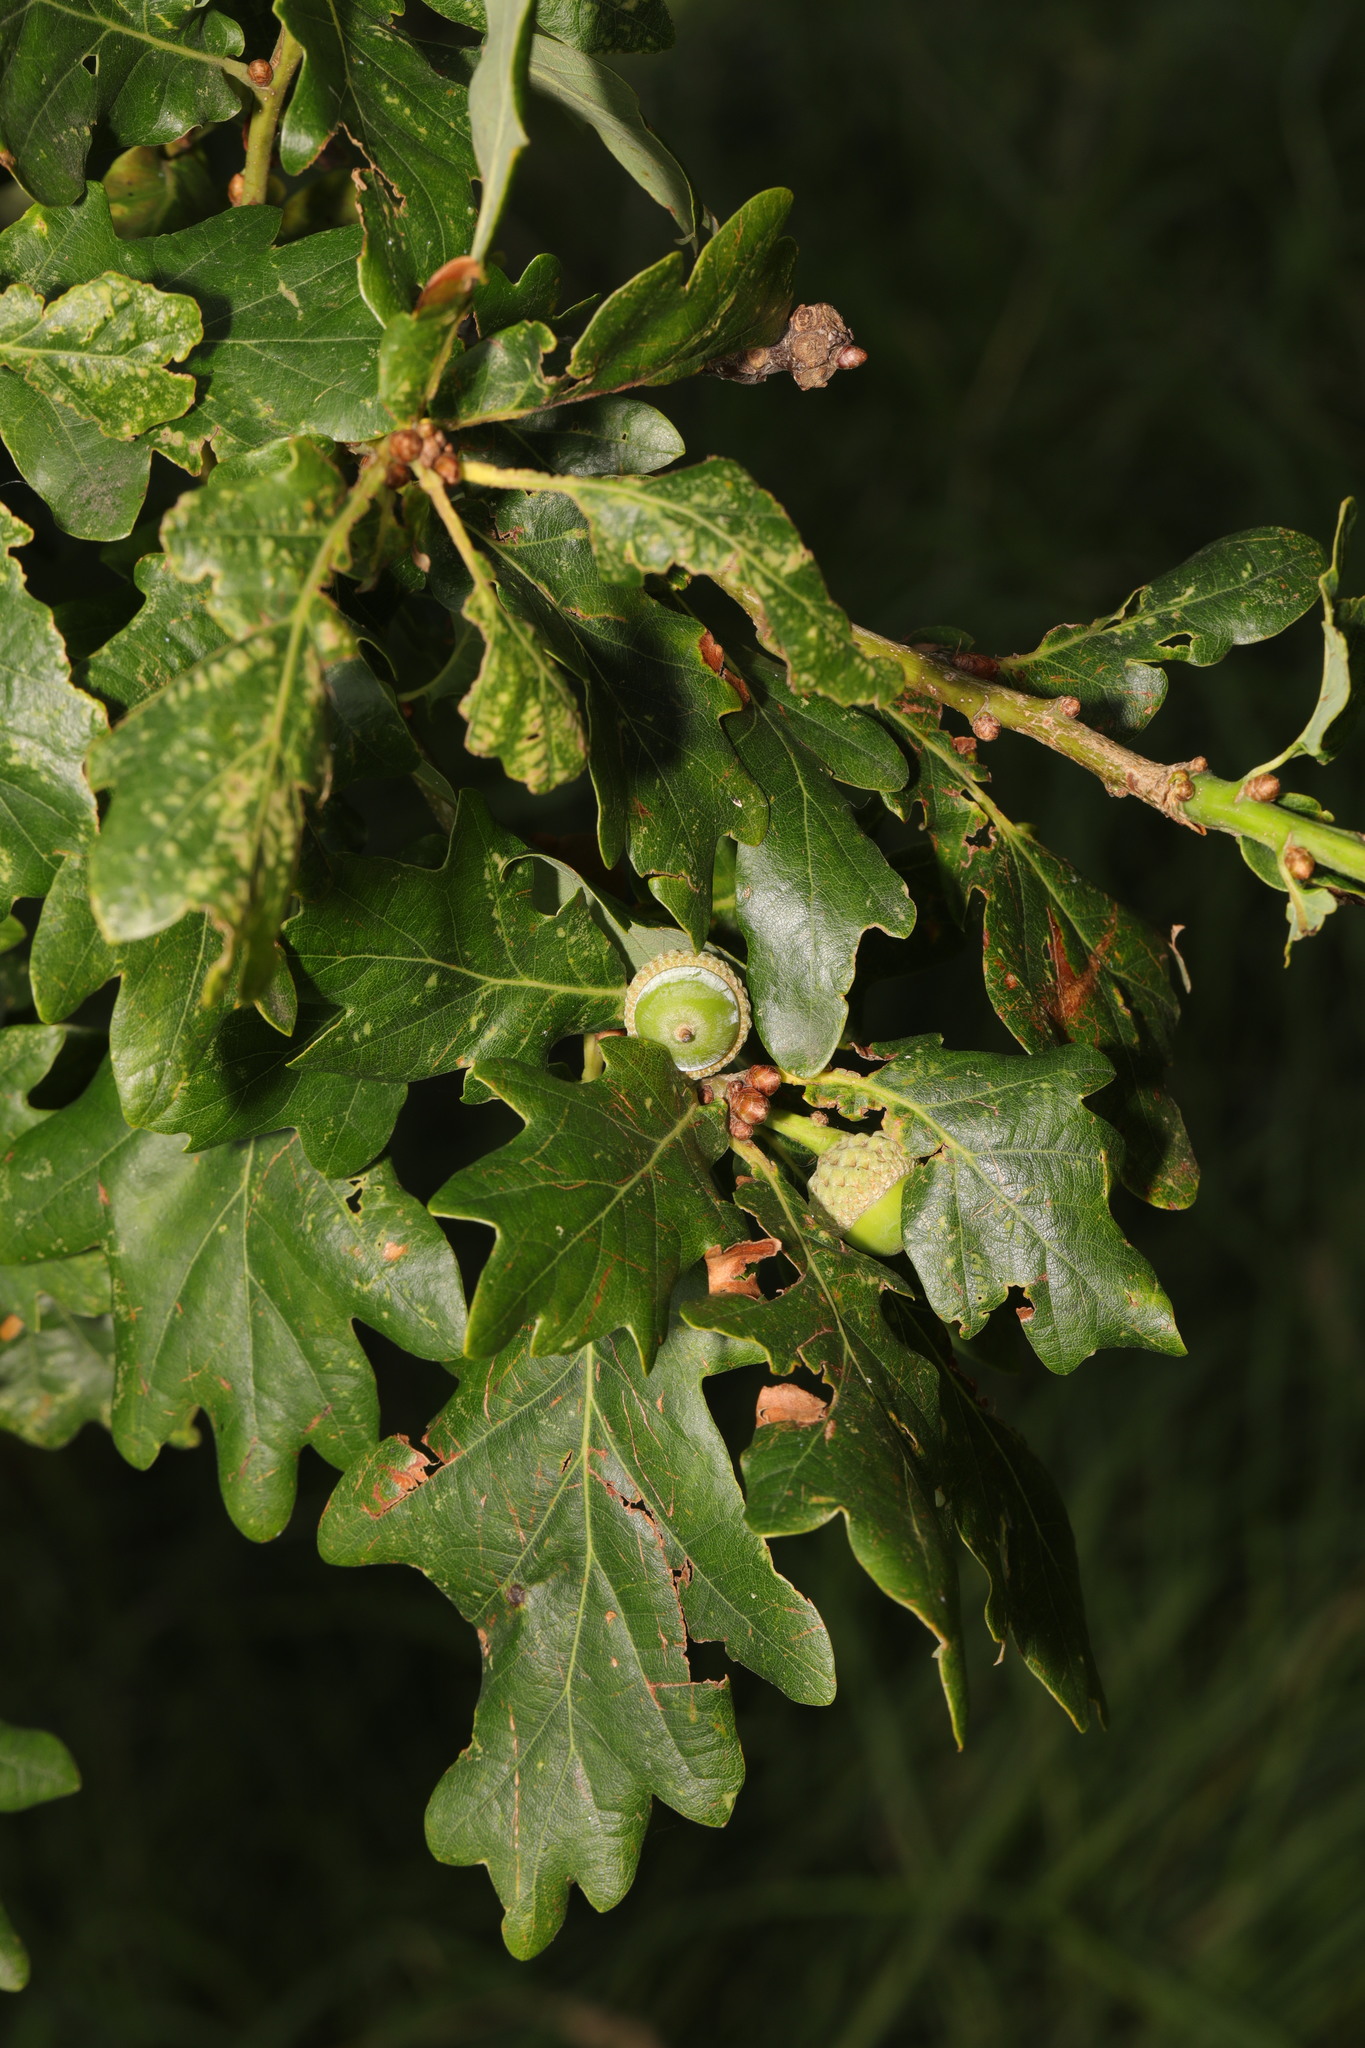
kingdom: Plantae
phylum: Tracheophyta
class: Magnoliopsida
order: Fagales
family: Fagaceae
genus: Quercus
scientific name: Quercus robur
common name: Pedunculate oak
